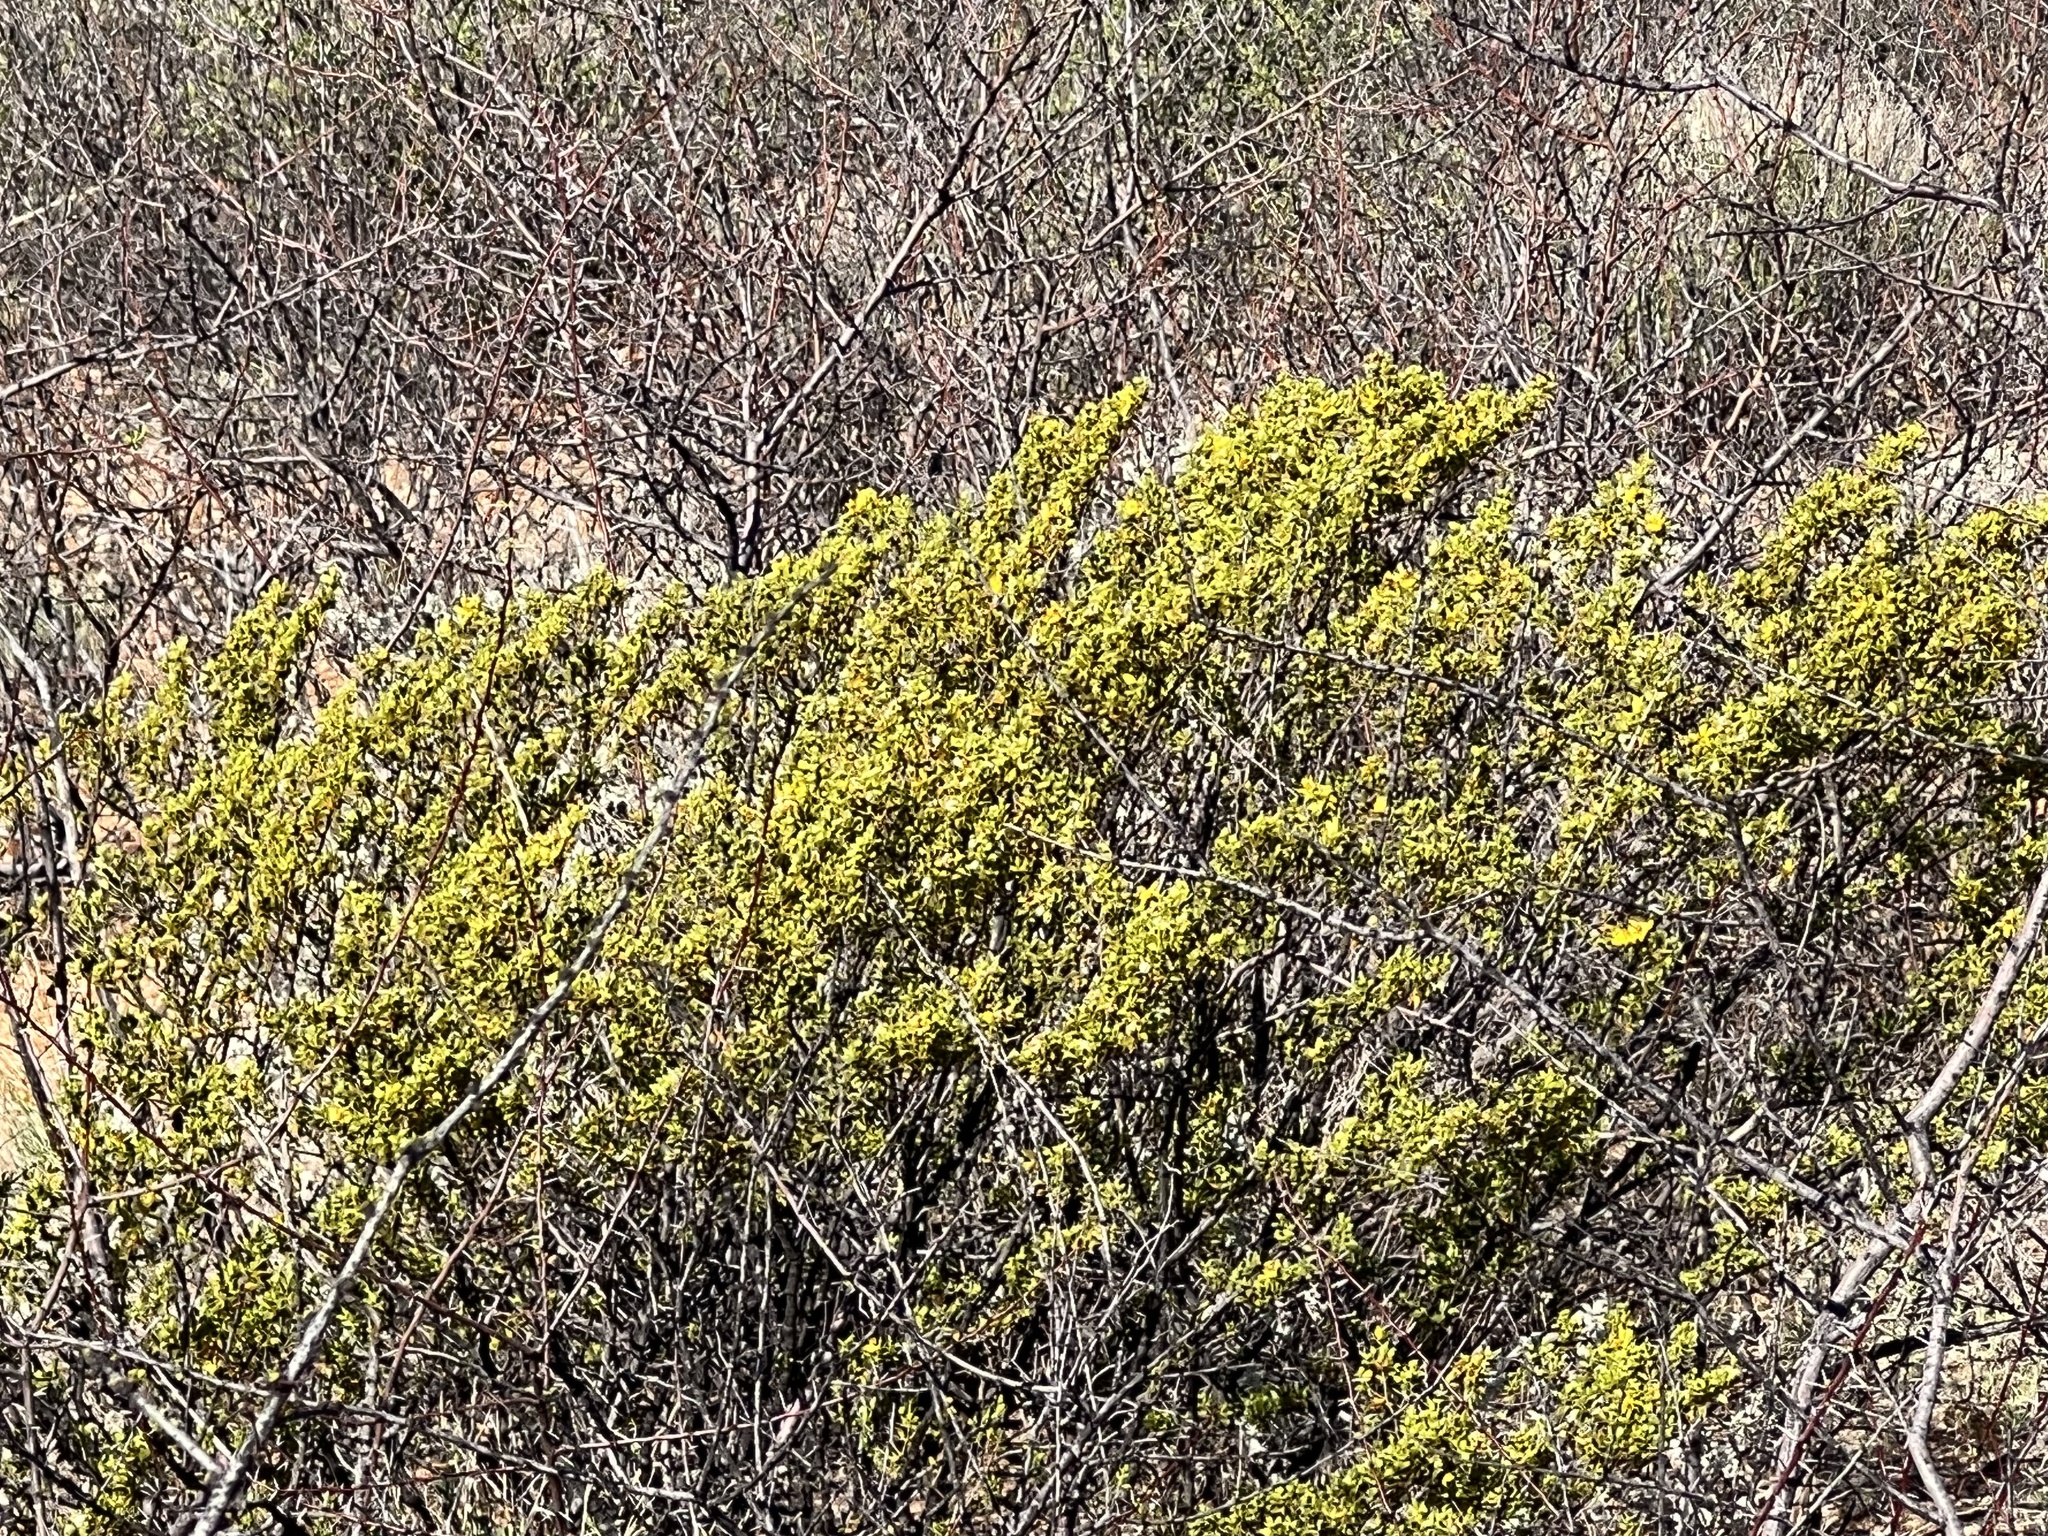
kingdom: Plantae
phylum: Tracheophyta
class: Magnoliopsida
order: Zygophyllales
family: Zygophyllaceae
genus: Larrea
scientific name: Larrea tridentata
